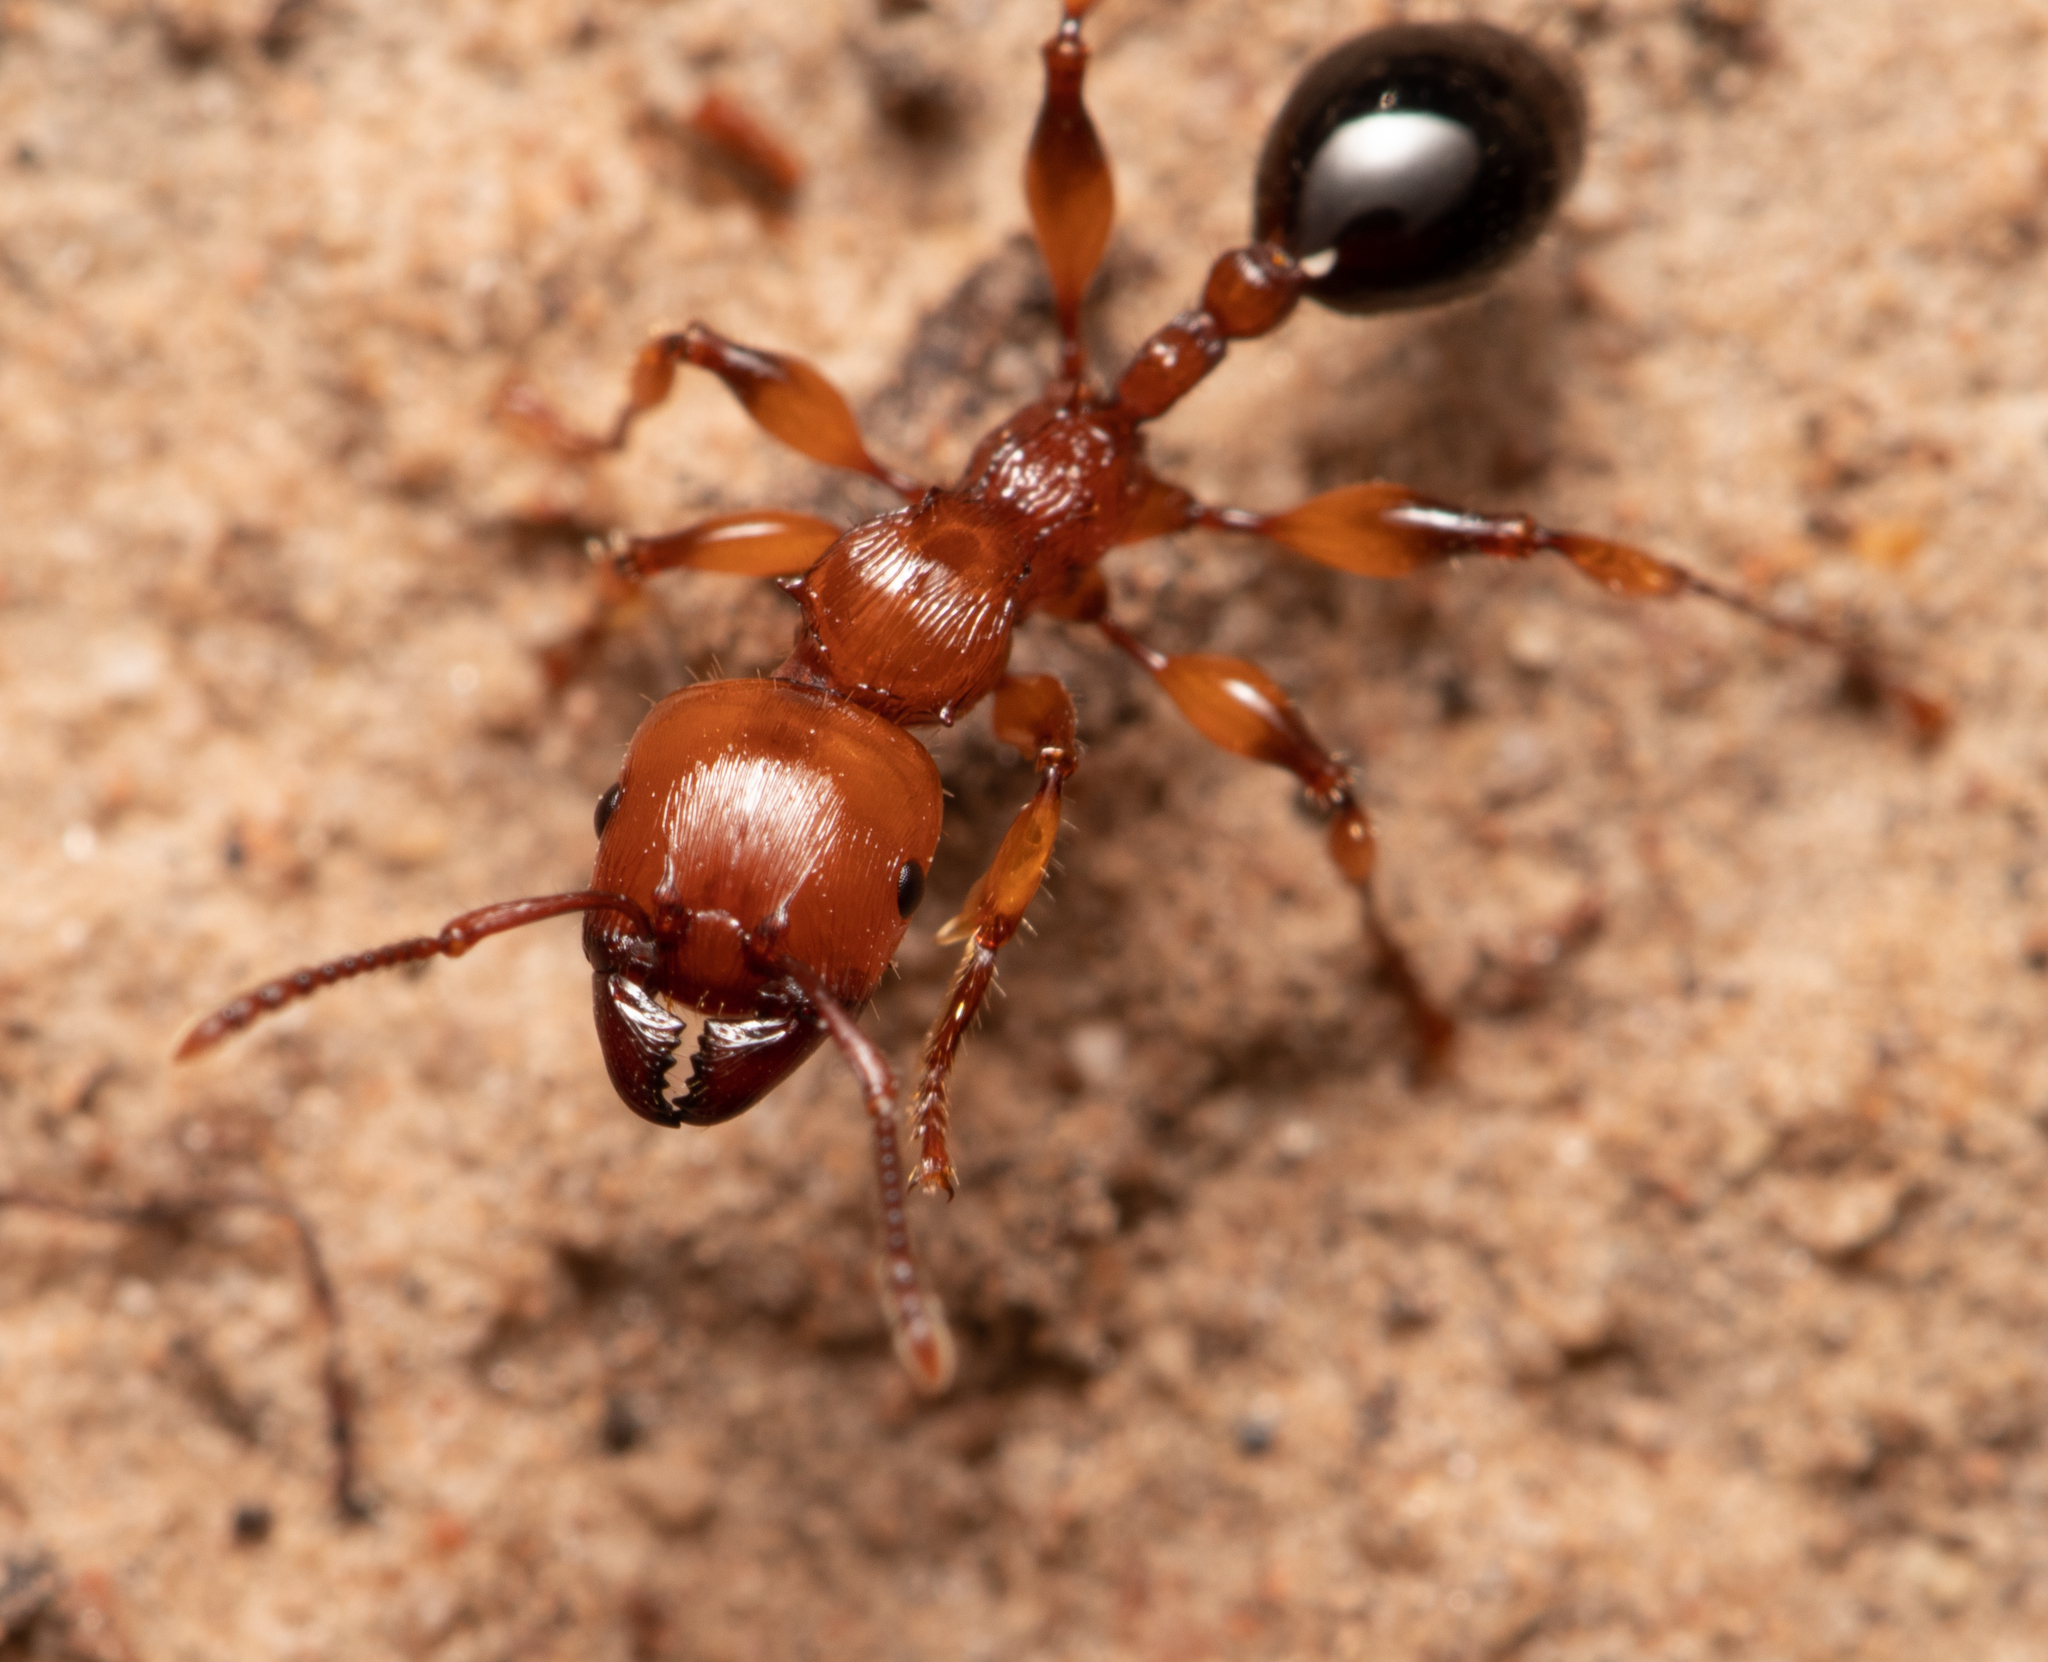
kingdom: Animalia
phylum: Arthropoda
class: Insecta
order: Hymenoptera
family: Formicidae
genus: Podomyrma
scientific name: Podomyrma gratiosa
